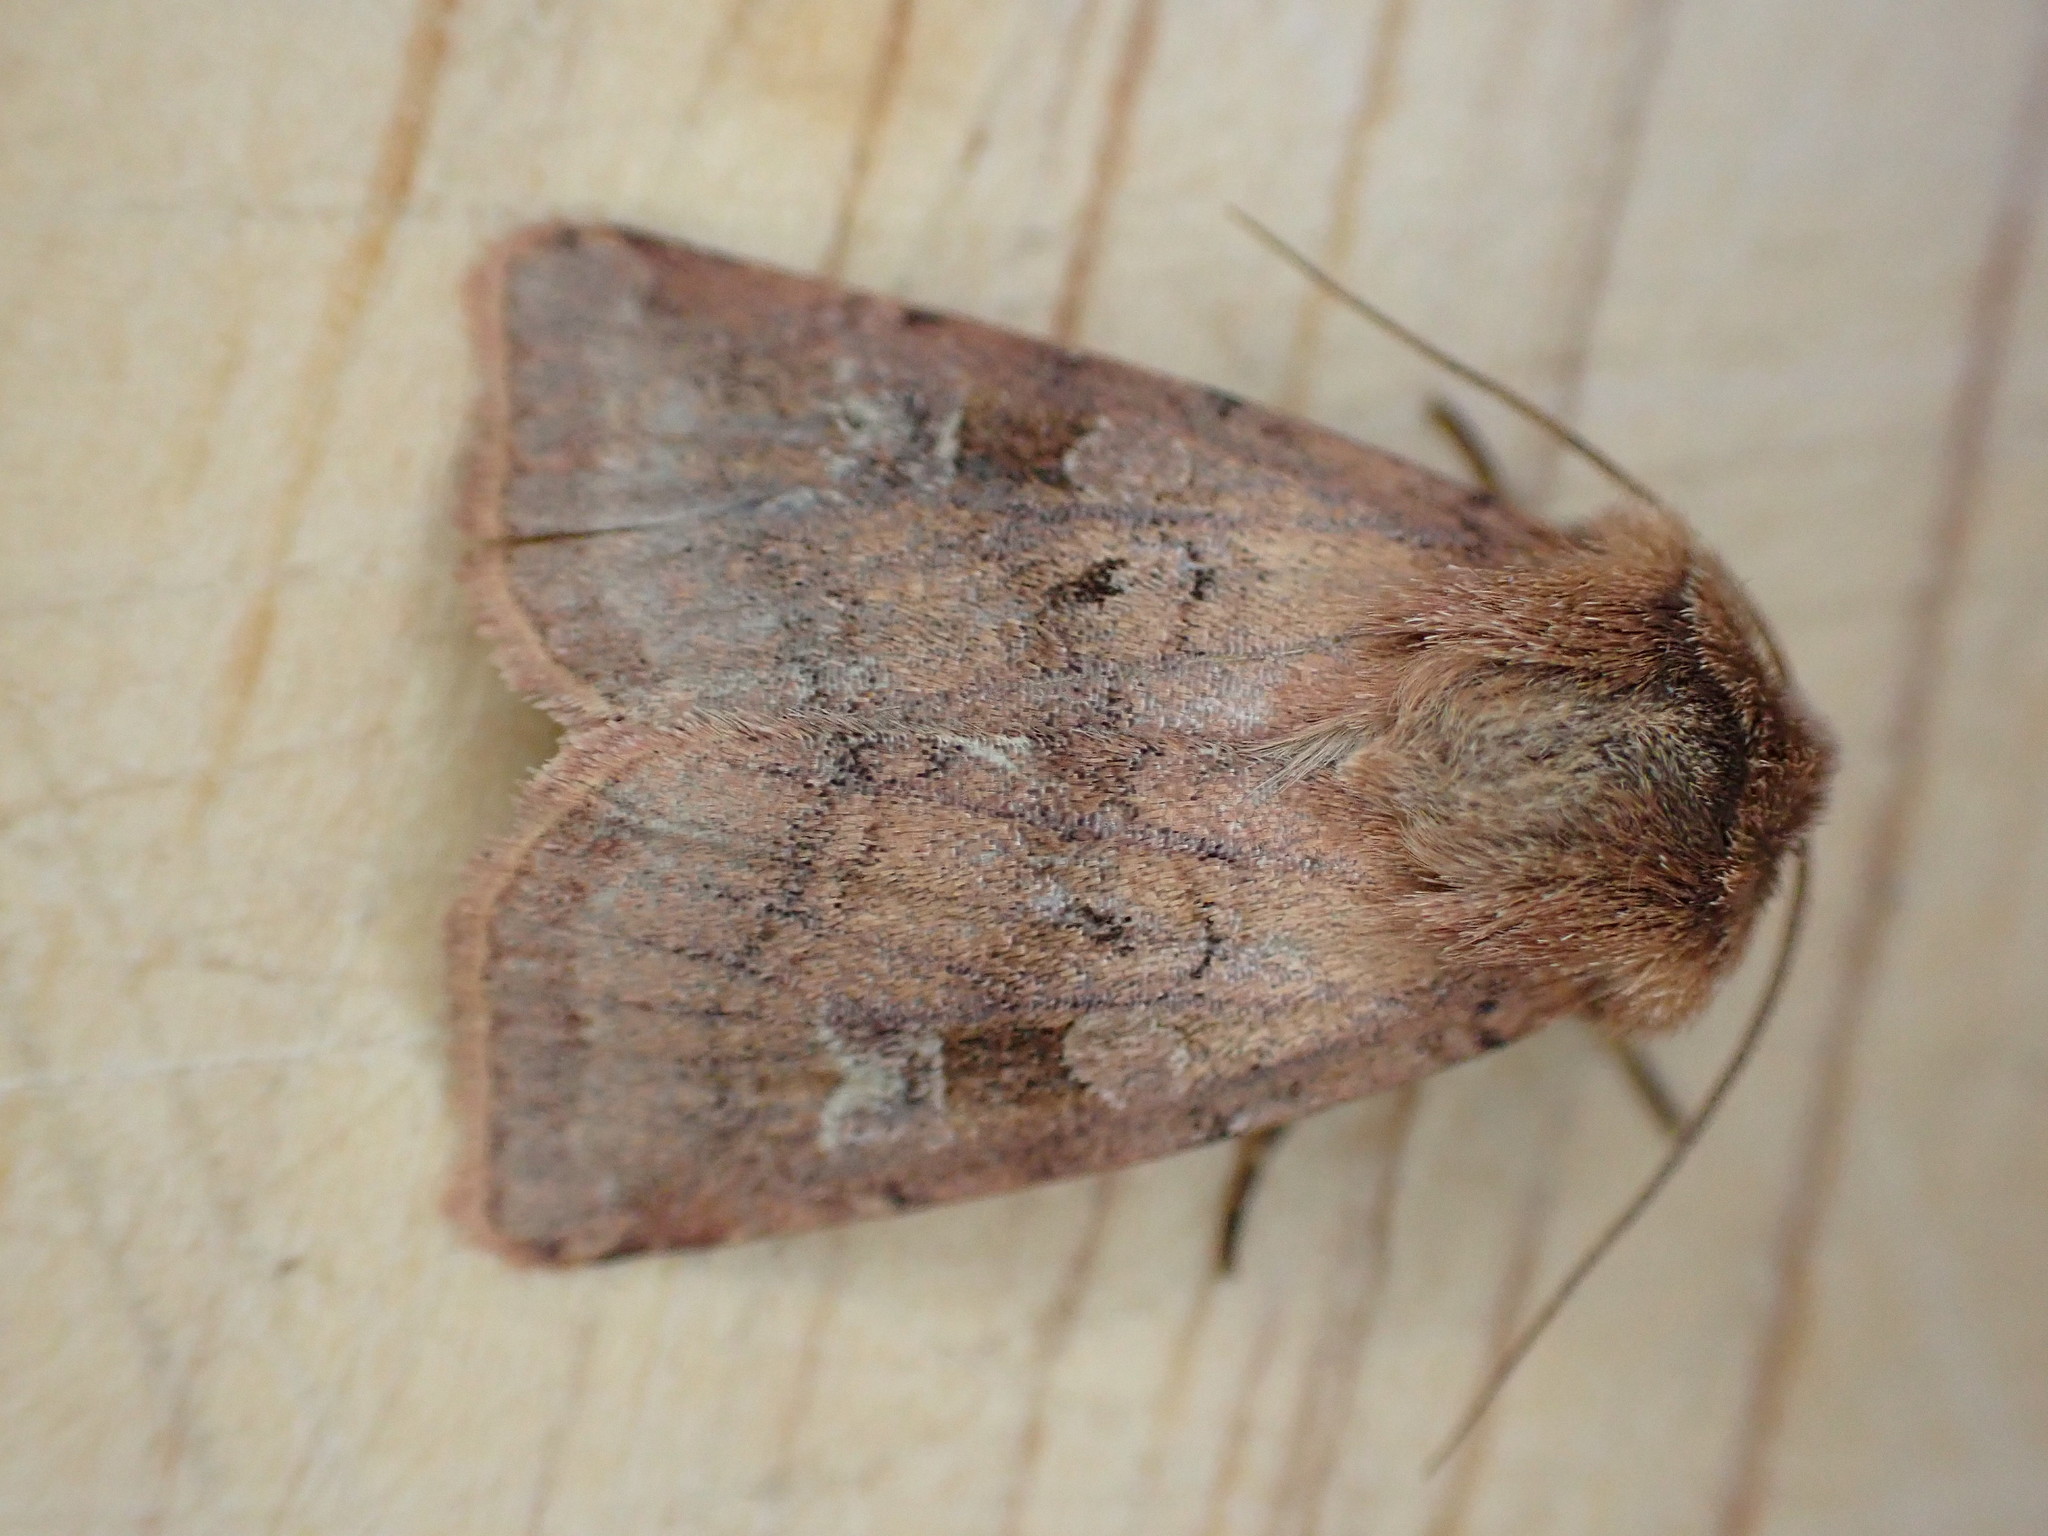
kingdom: Animalia
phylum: Arthropoda
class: Insecta
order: Lepidoptera
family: Noctuidae
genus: Diarsia
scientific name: Diarsia rubi
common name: Small square-spot
